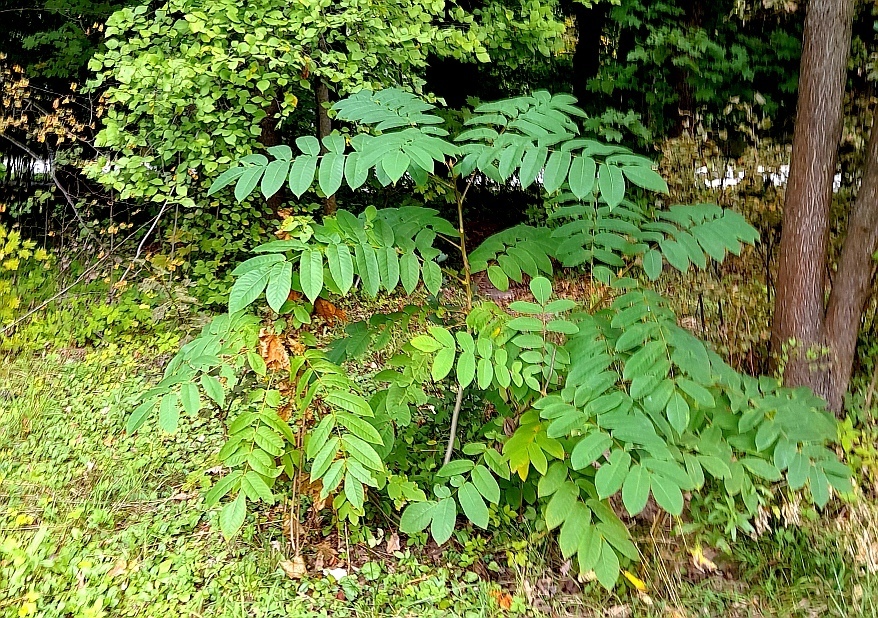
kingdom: Plantae
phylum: Tracheophyta
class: Magnoliopsida
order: Fagales
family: Juglandaceae
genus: Juglans
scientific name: Juglans mandshurica
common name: Manchurian walnut
